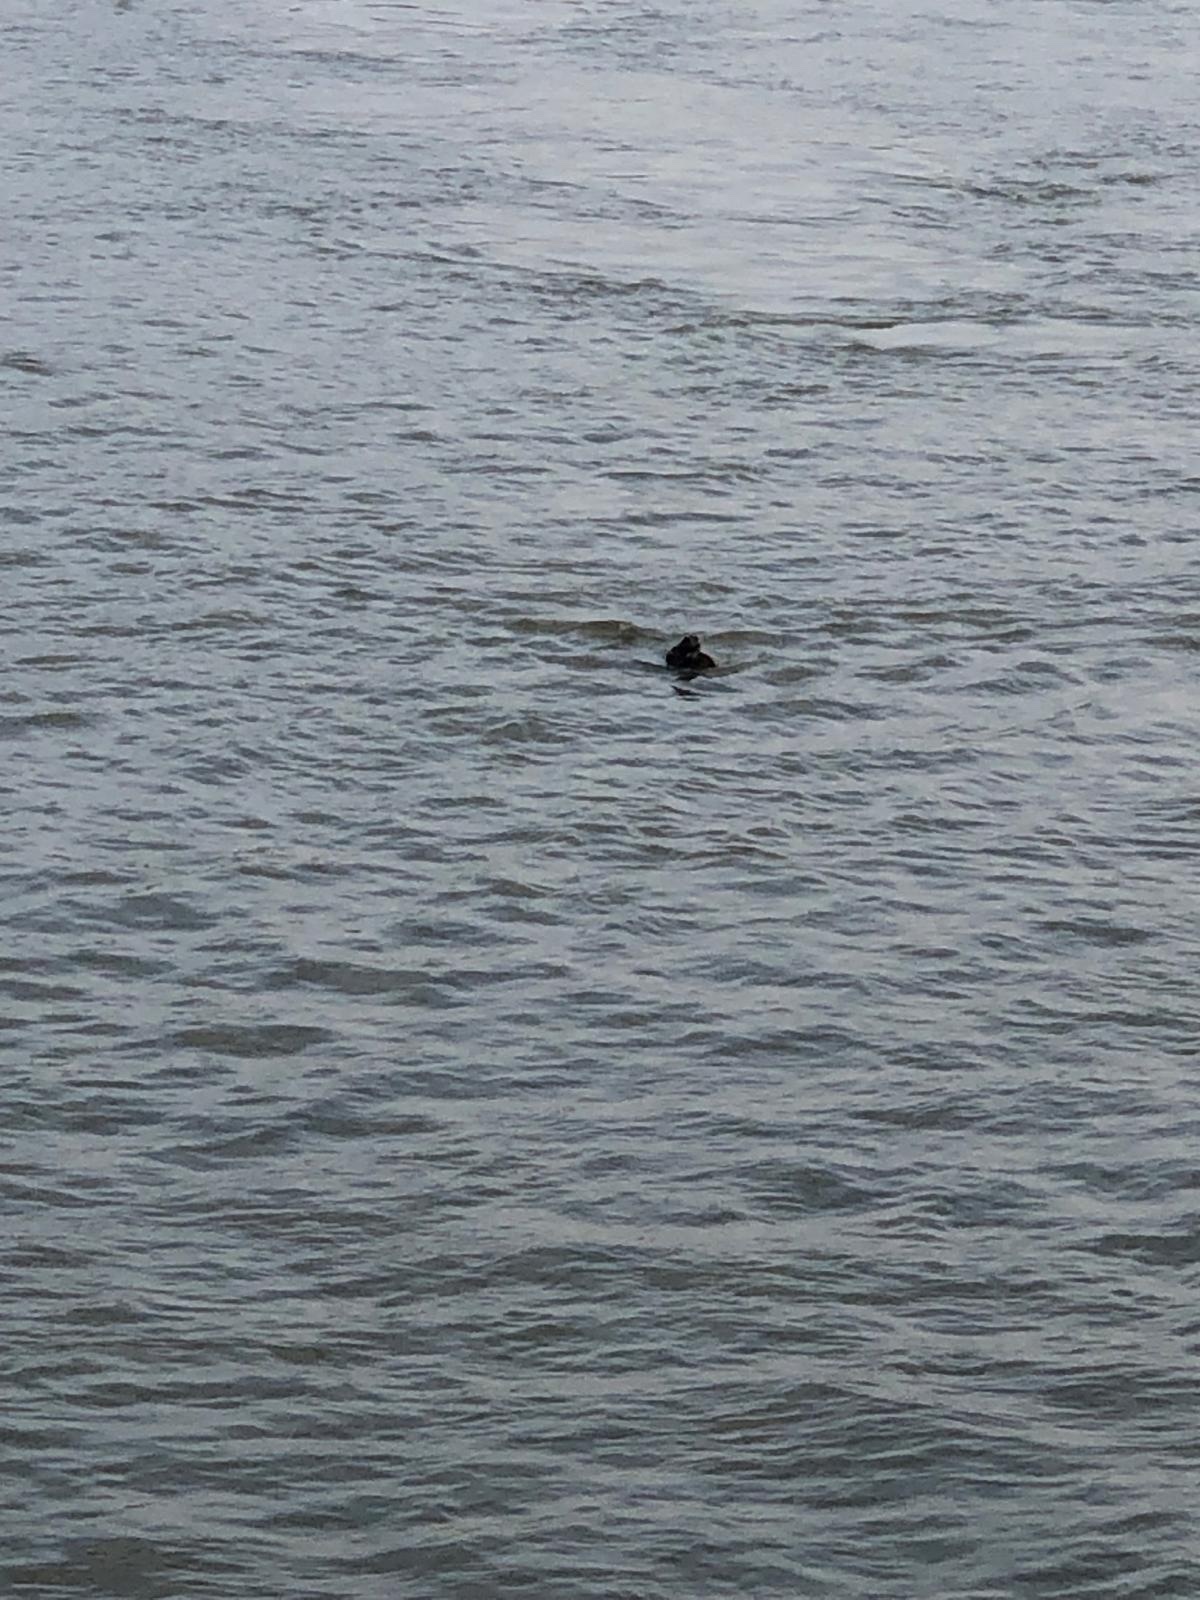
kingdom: Animalia
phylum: Chordata
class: Mammalia
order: Carnivora
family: Phocidae
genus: Halichoerus
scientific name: Halichoerus grypus
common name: Grey seal
